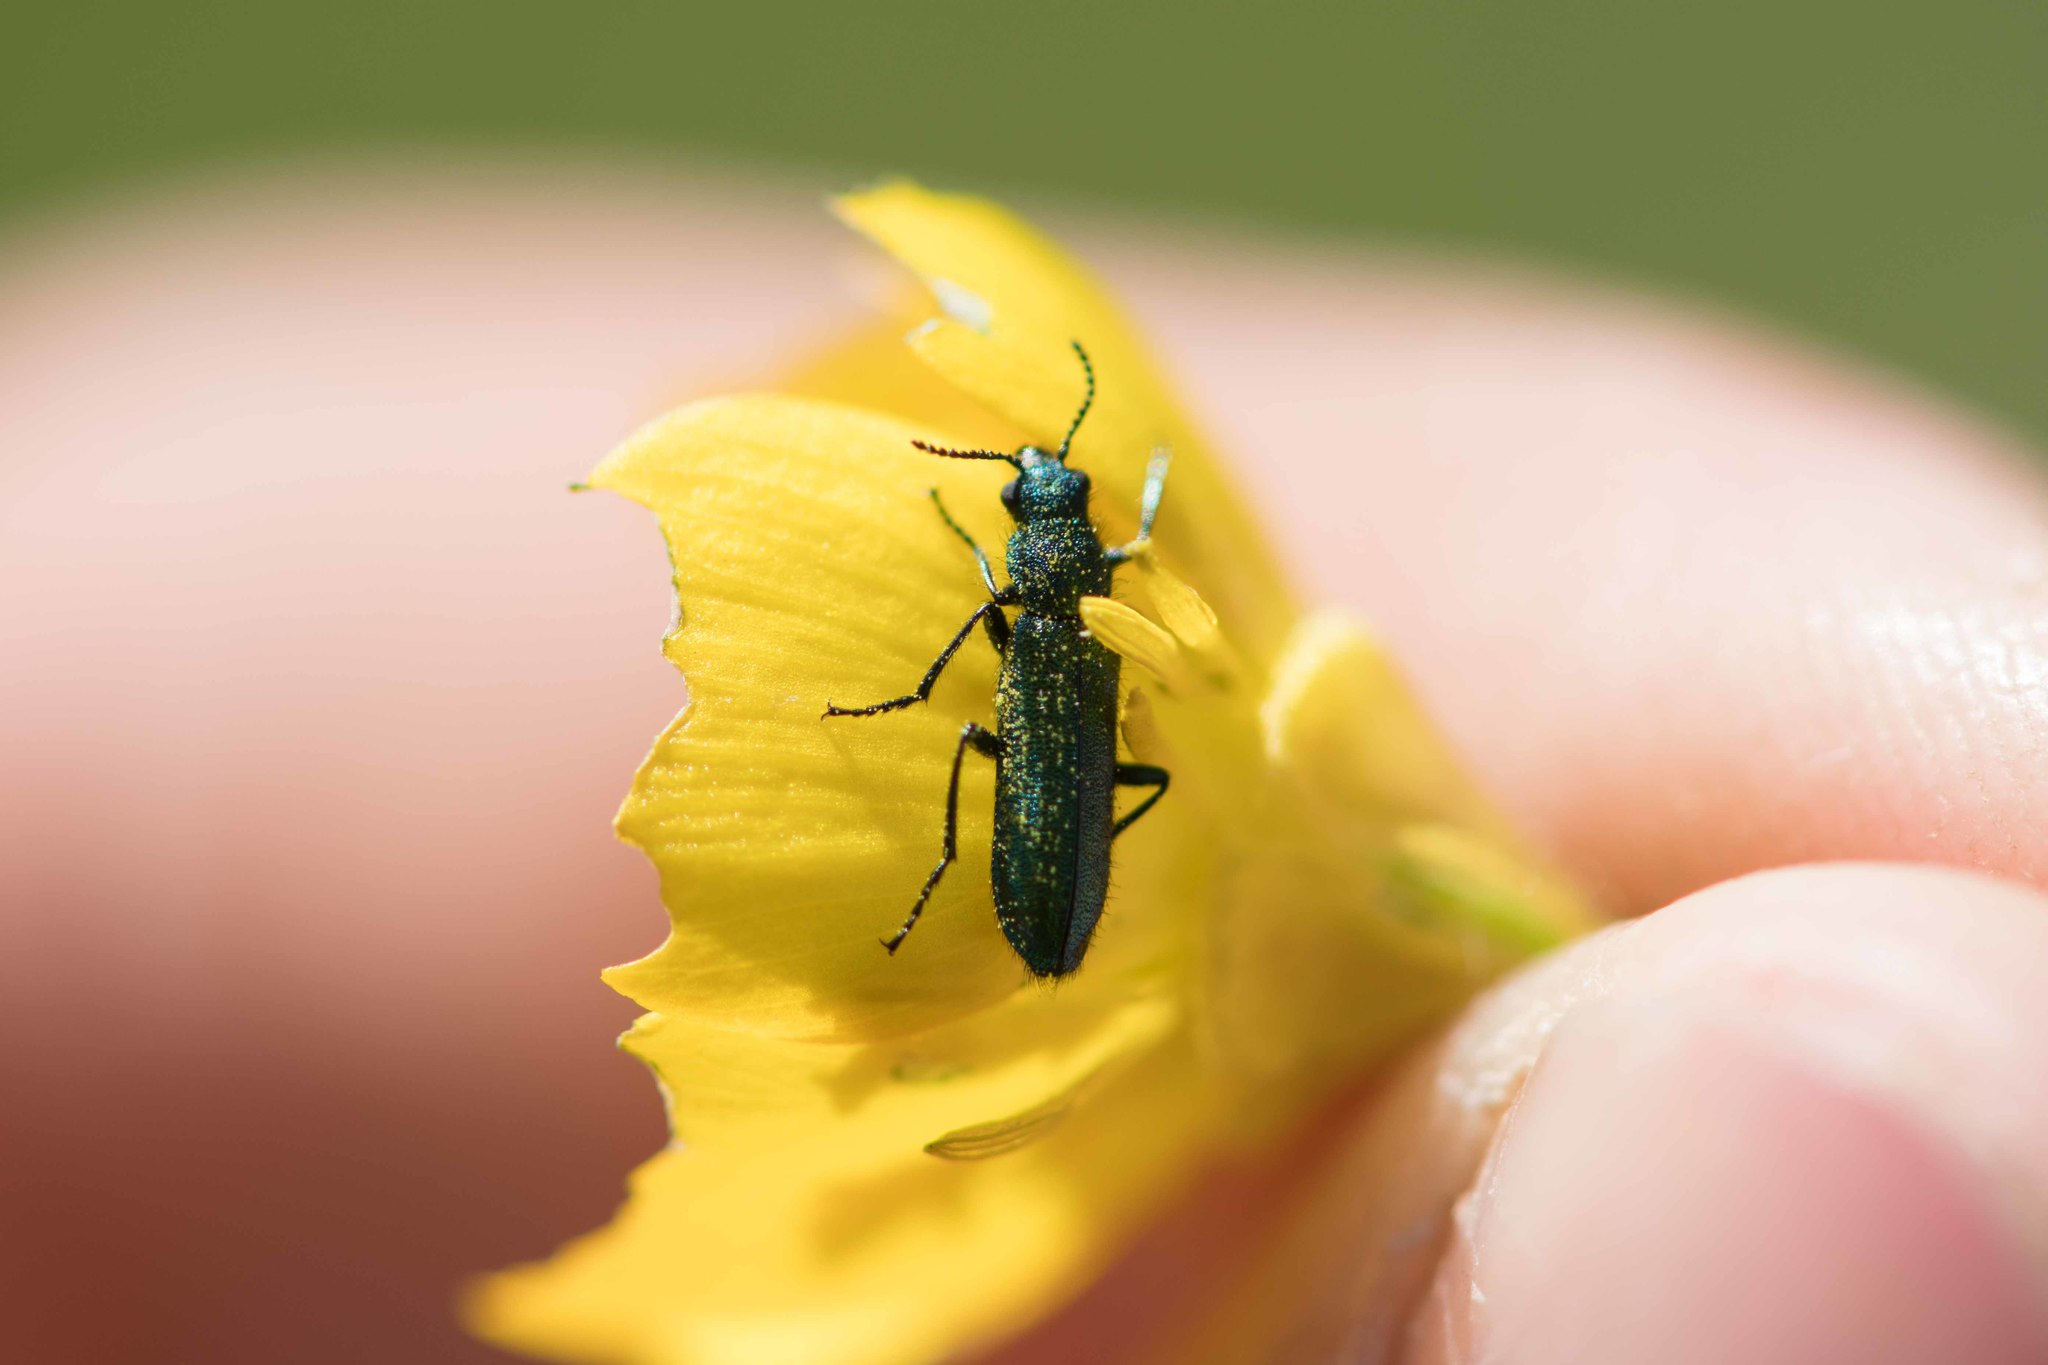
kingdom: Animalia
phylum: Arthropoda
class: Insecta
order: Coleoptera
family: Dasytidae
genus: Psilothrix
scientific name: Psilothrix viridicoerulea
